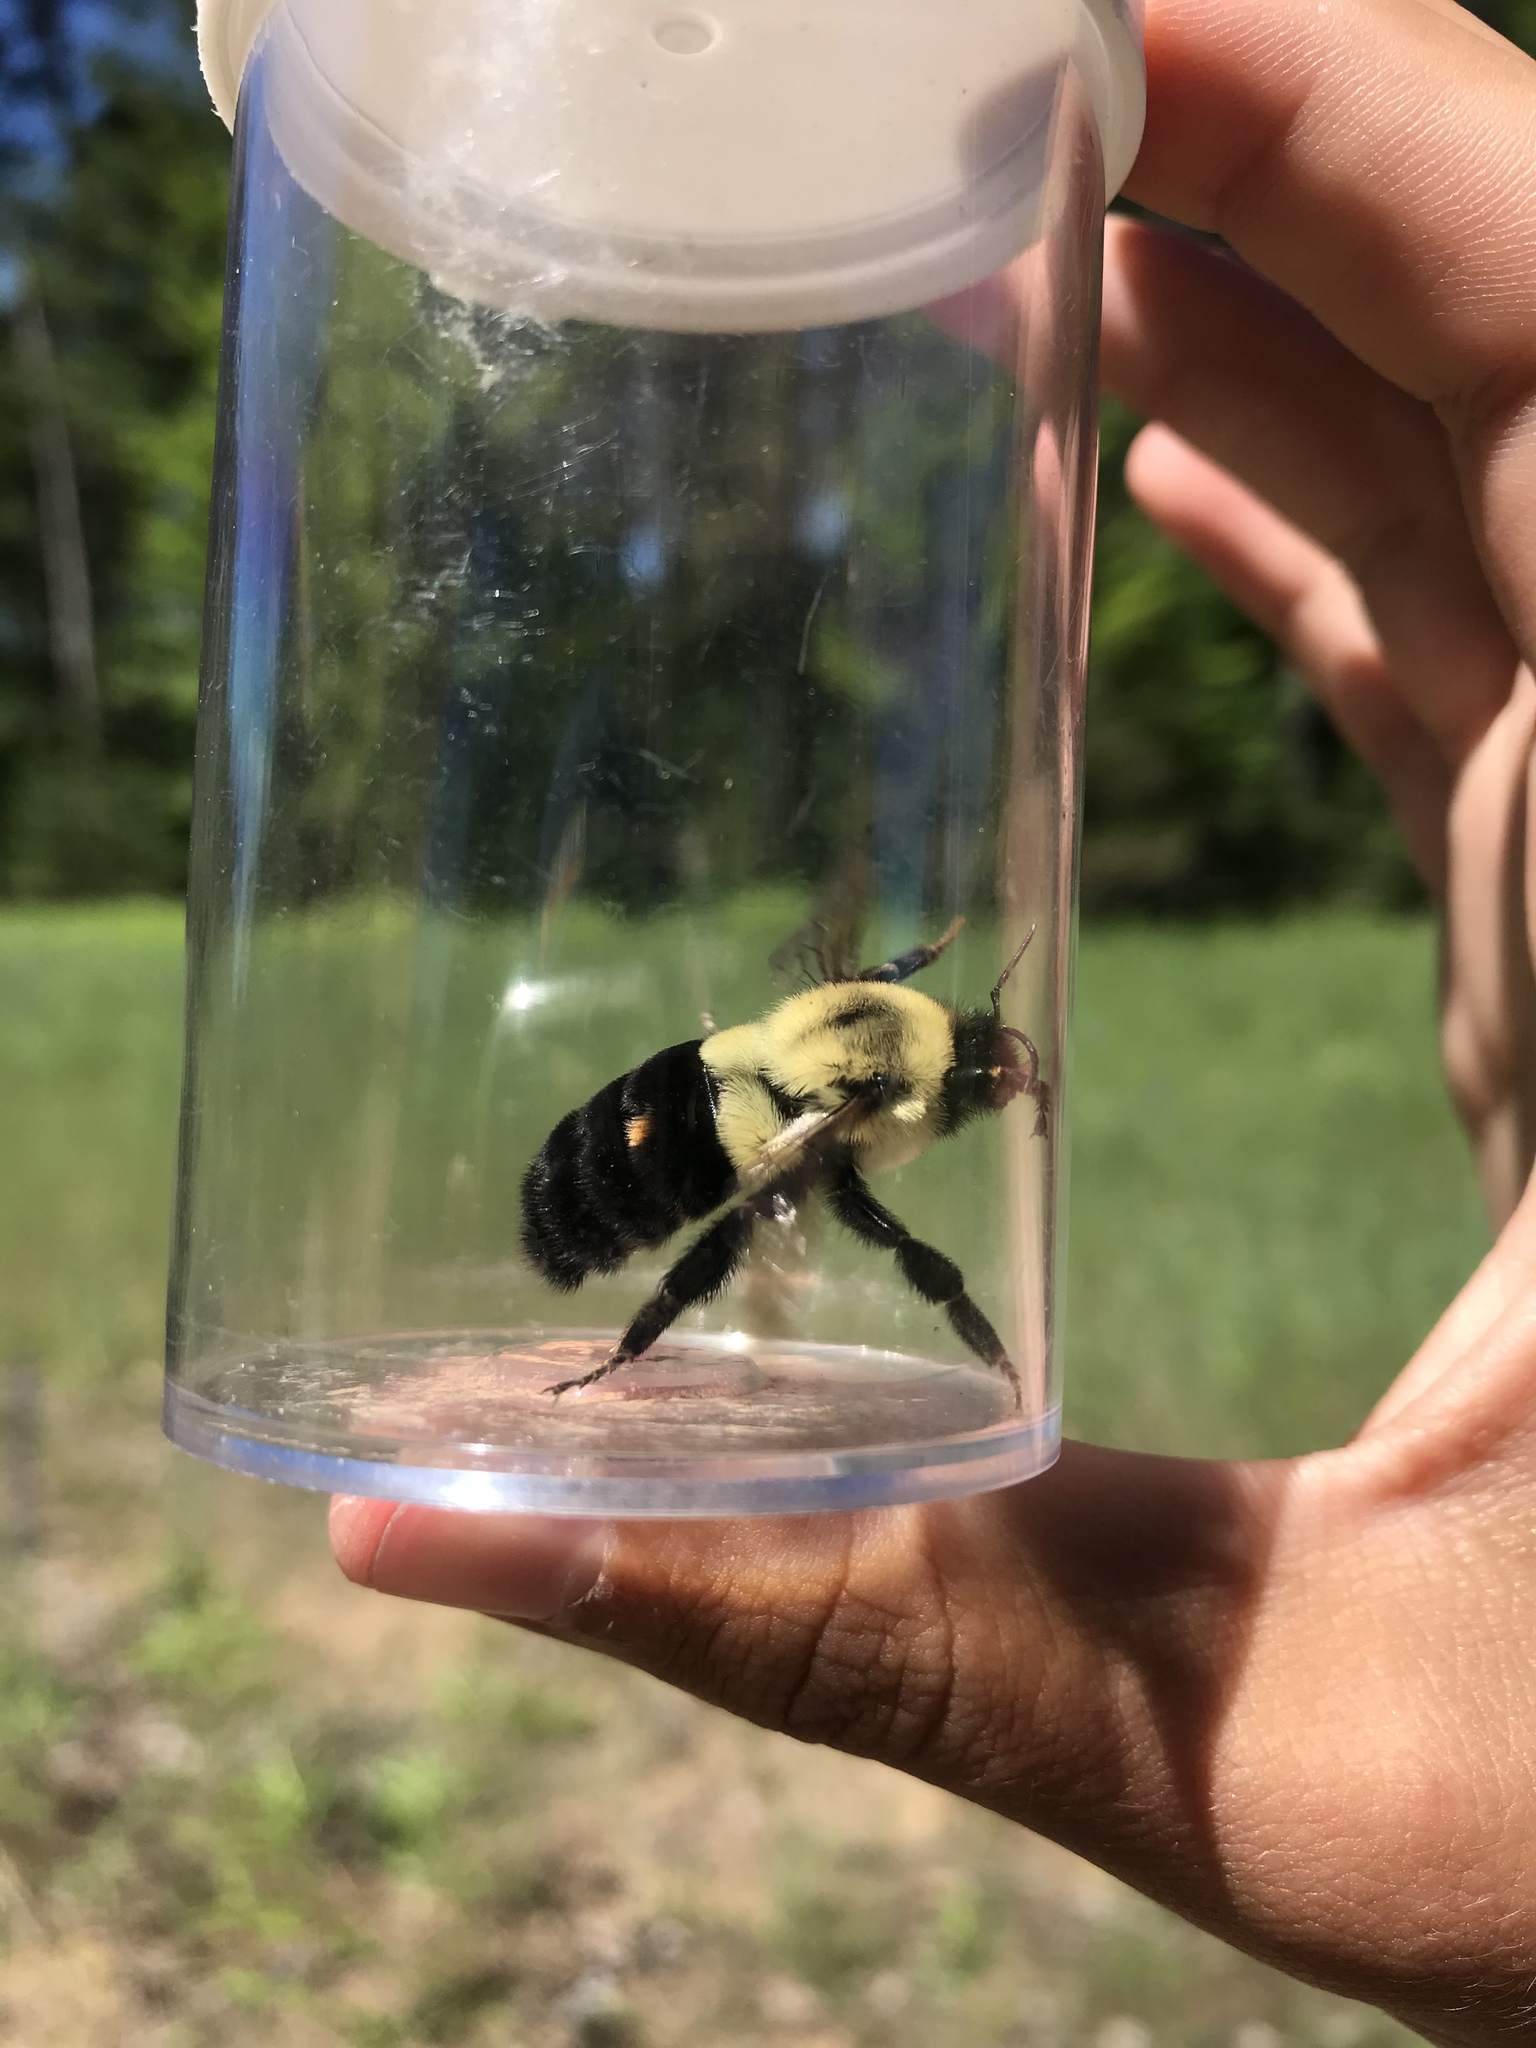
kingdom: Animalia
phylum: Arthropoda
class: Insecta
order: Hymenoptera
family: Apidae
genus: Bombus
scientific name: Bombus impatiens
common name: Common eastern bumble bee
